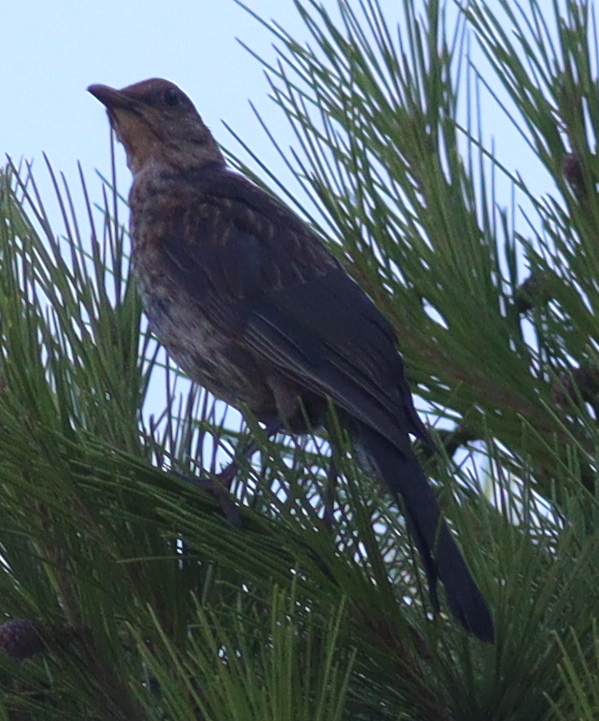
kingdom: Animalia
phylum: Chordata
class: Aves
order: Passeriformes
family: Turdidae
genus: Turdus
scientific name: Turdus merula
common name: Common blackbird
